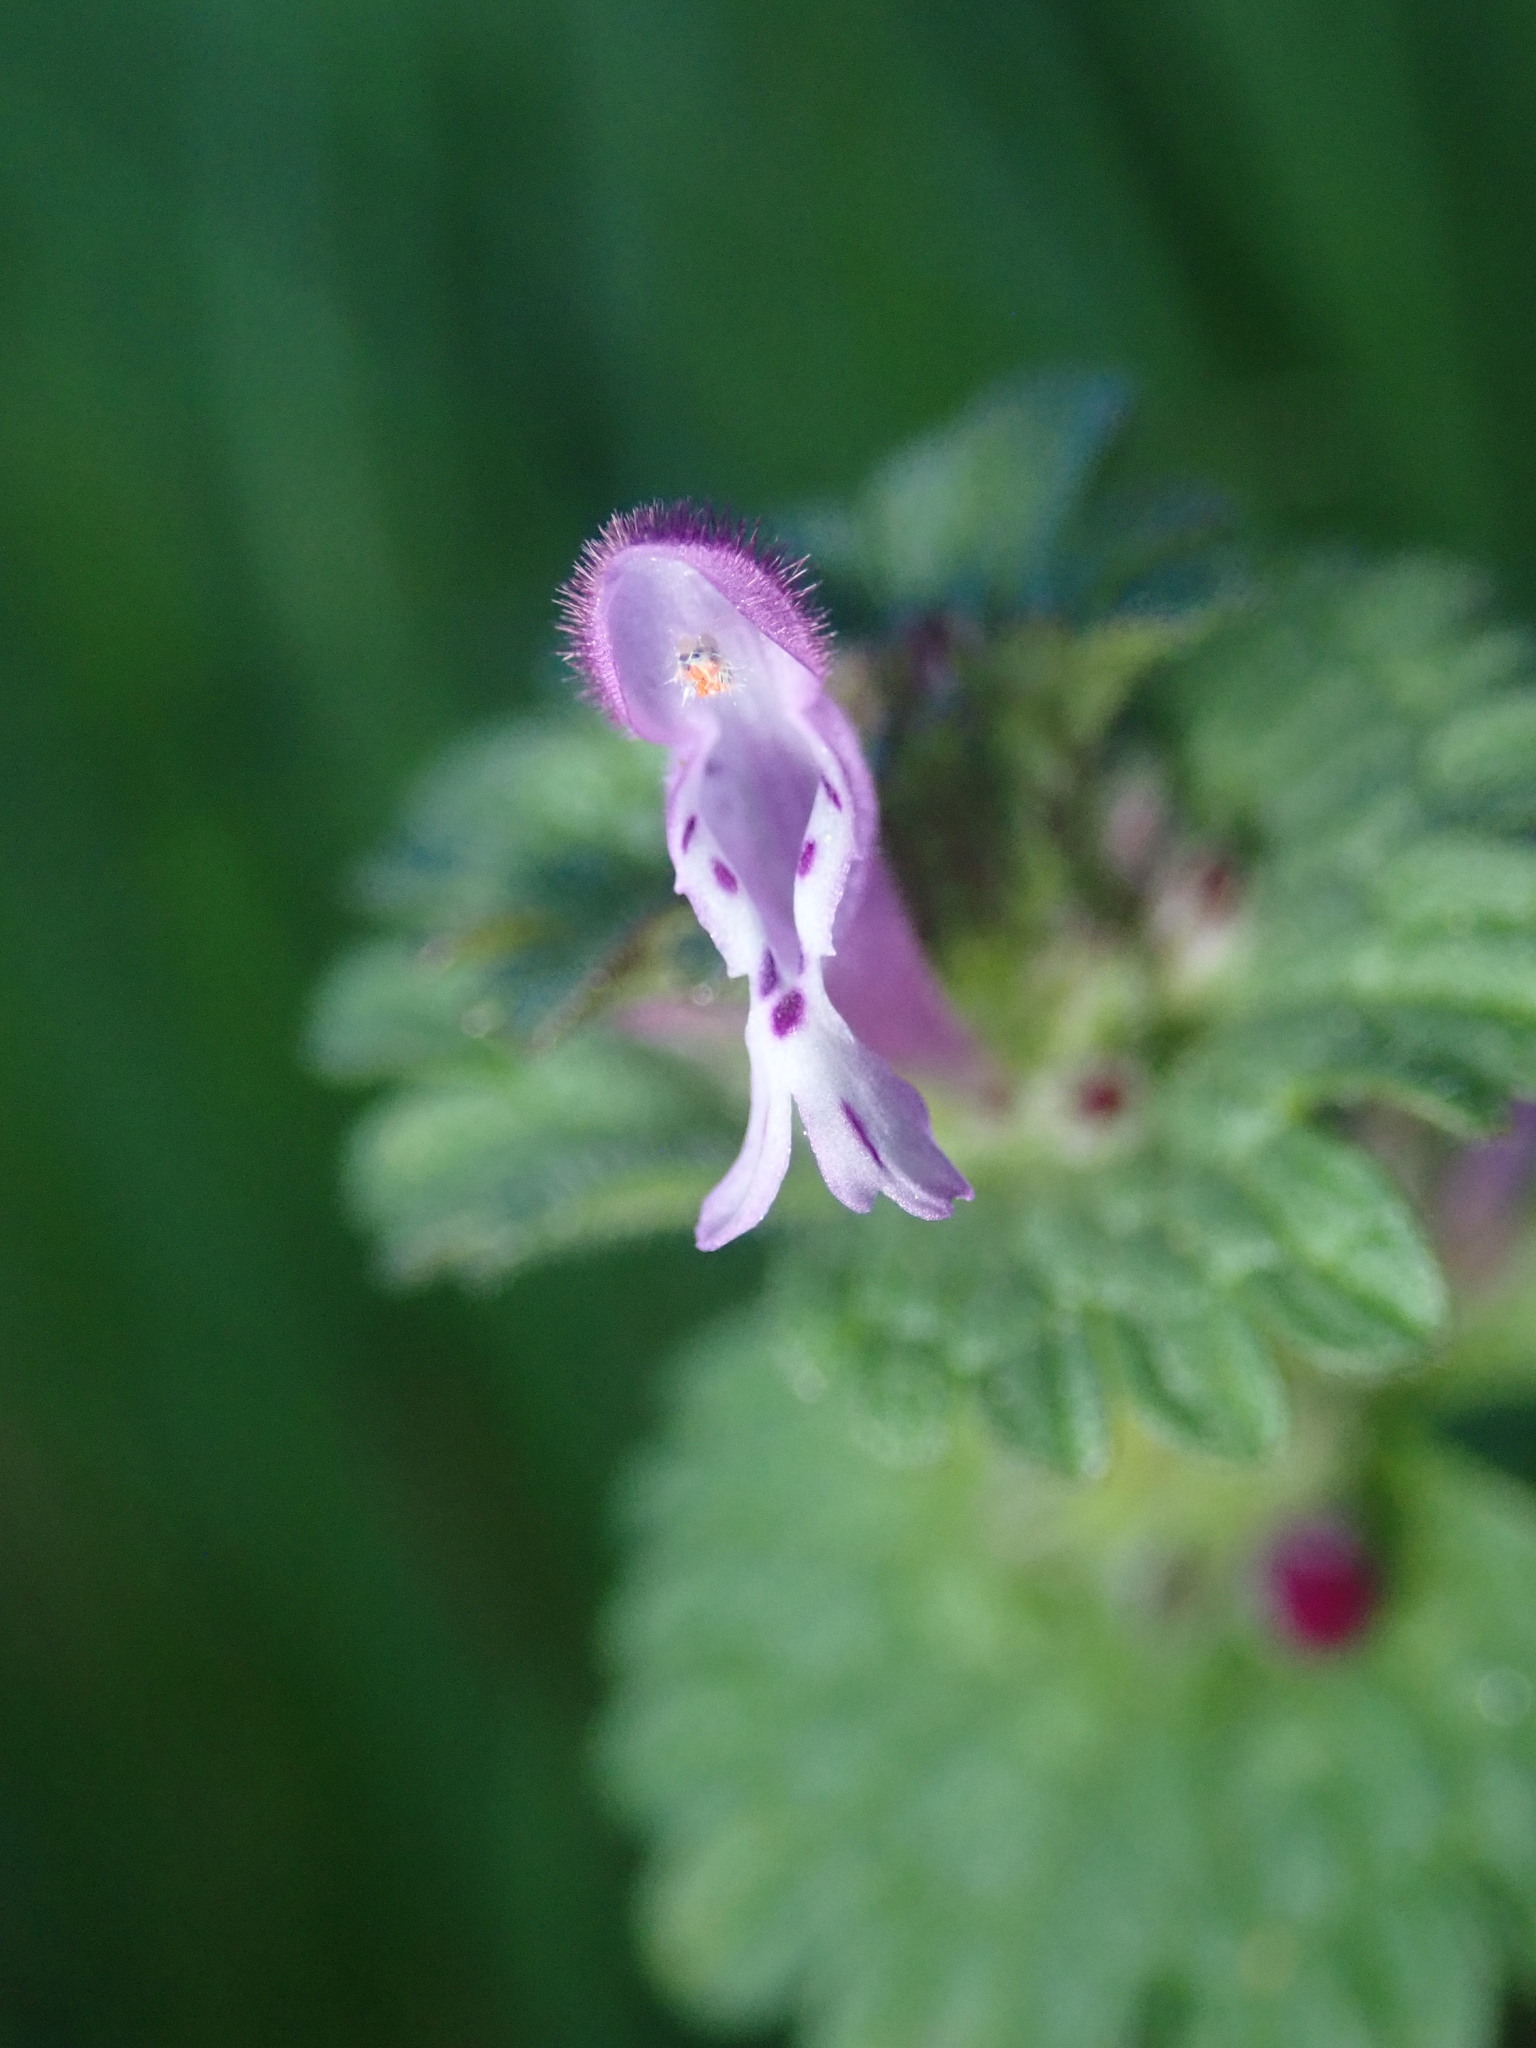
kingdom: Plantae
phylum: Tracheophyta
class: Magnoliopsida
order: Lamiales
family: Lamiaceae
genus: Lamium
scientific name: Lamium amplexicaule
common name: Henbit dead-nettle
